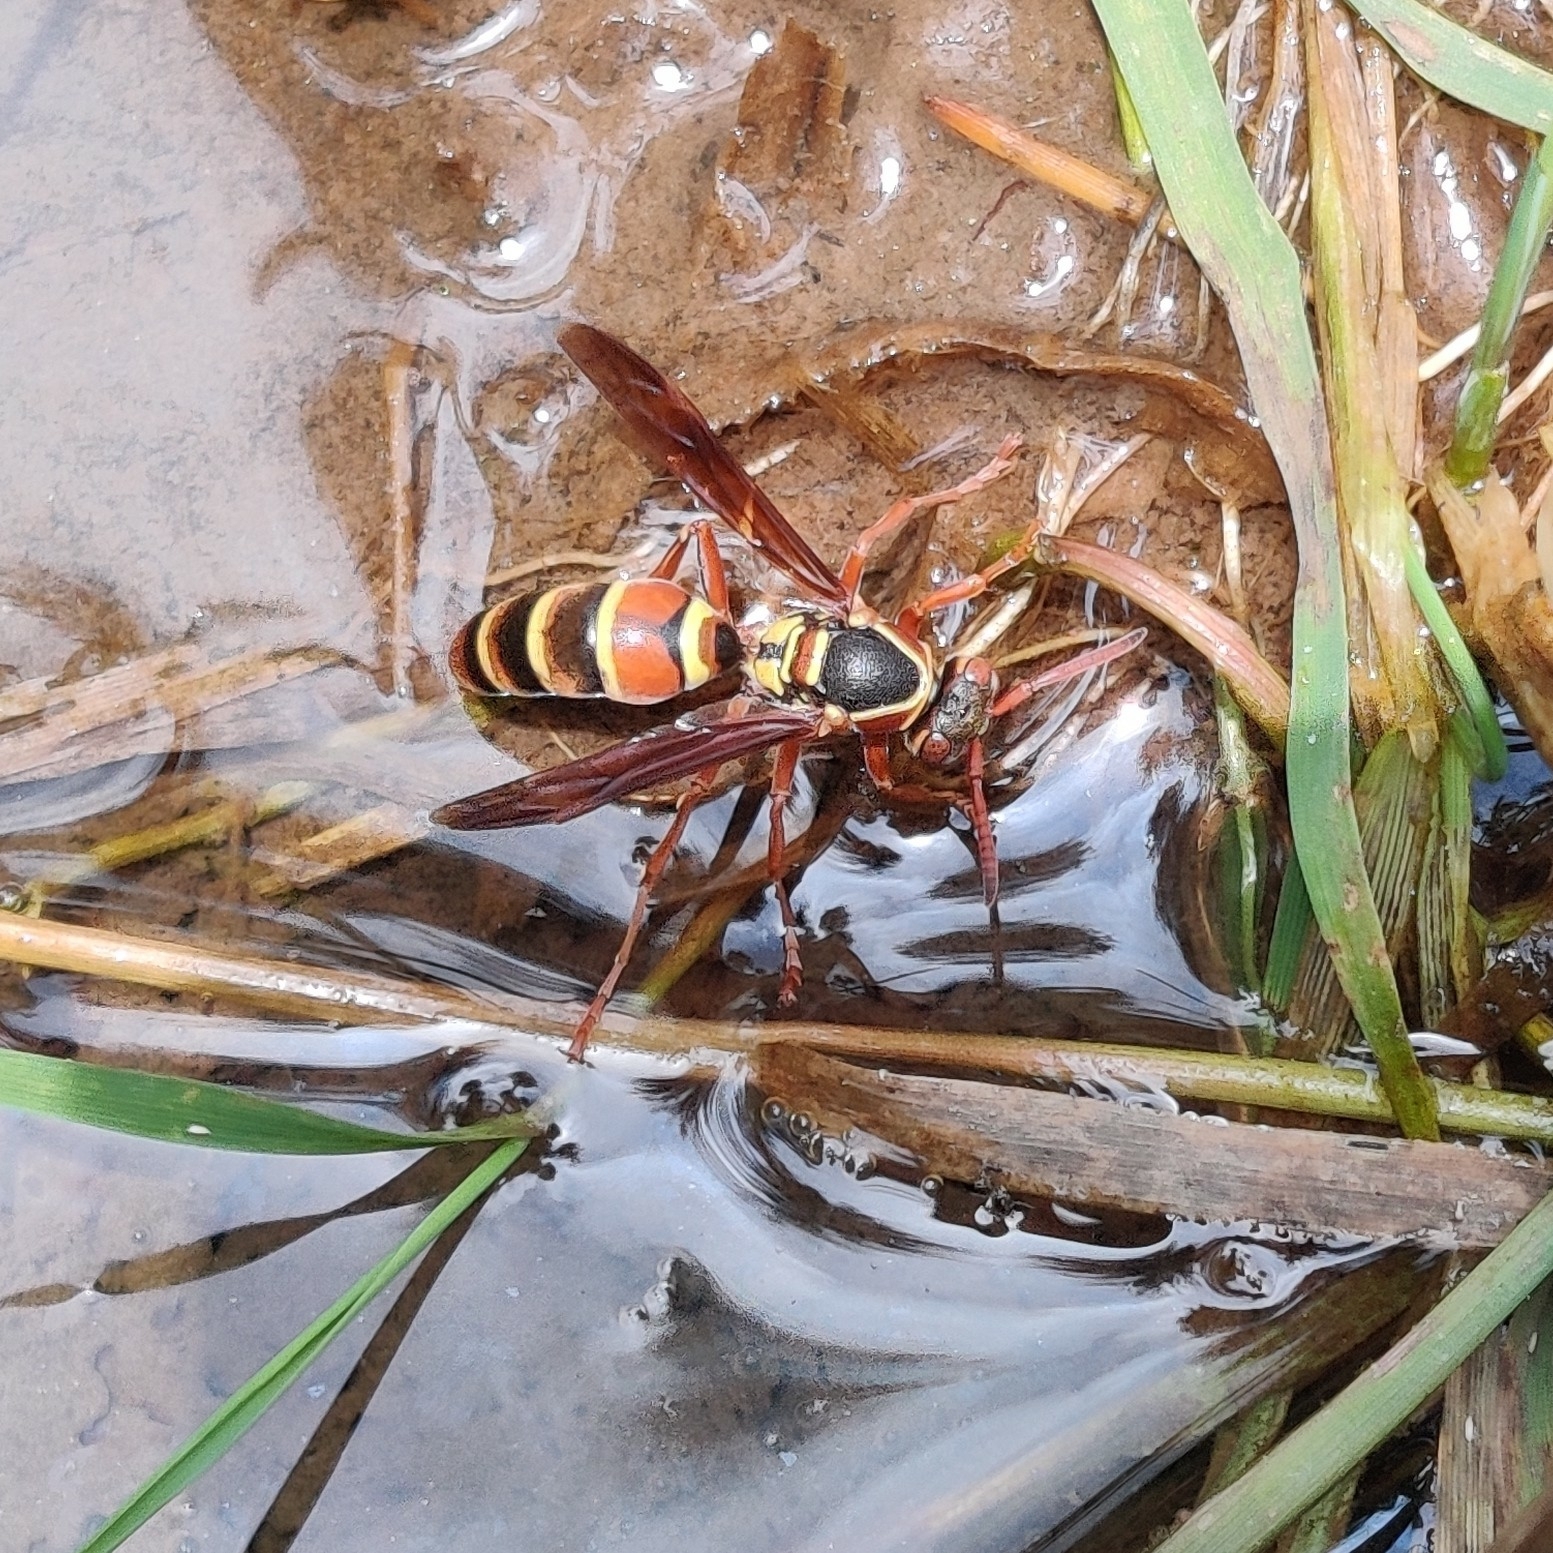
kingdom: Animalia
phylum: Arthropoda
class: Insecta
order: Hymenoptera
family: Eumenidae
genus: Knemodynerus
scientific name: Knemodynerus multimaculatus
